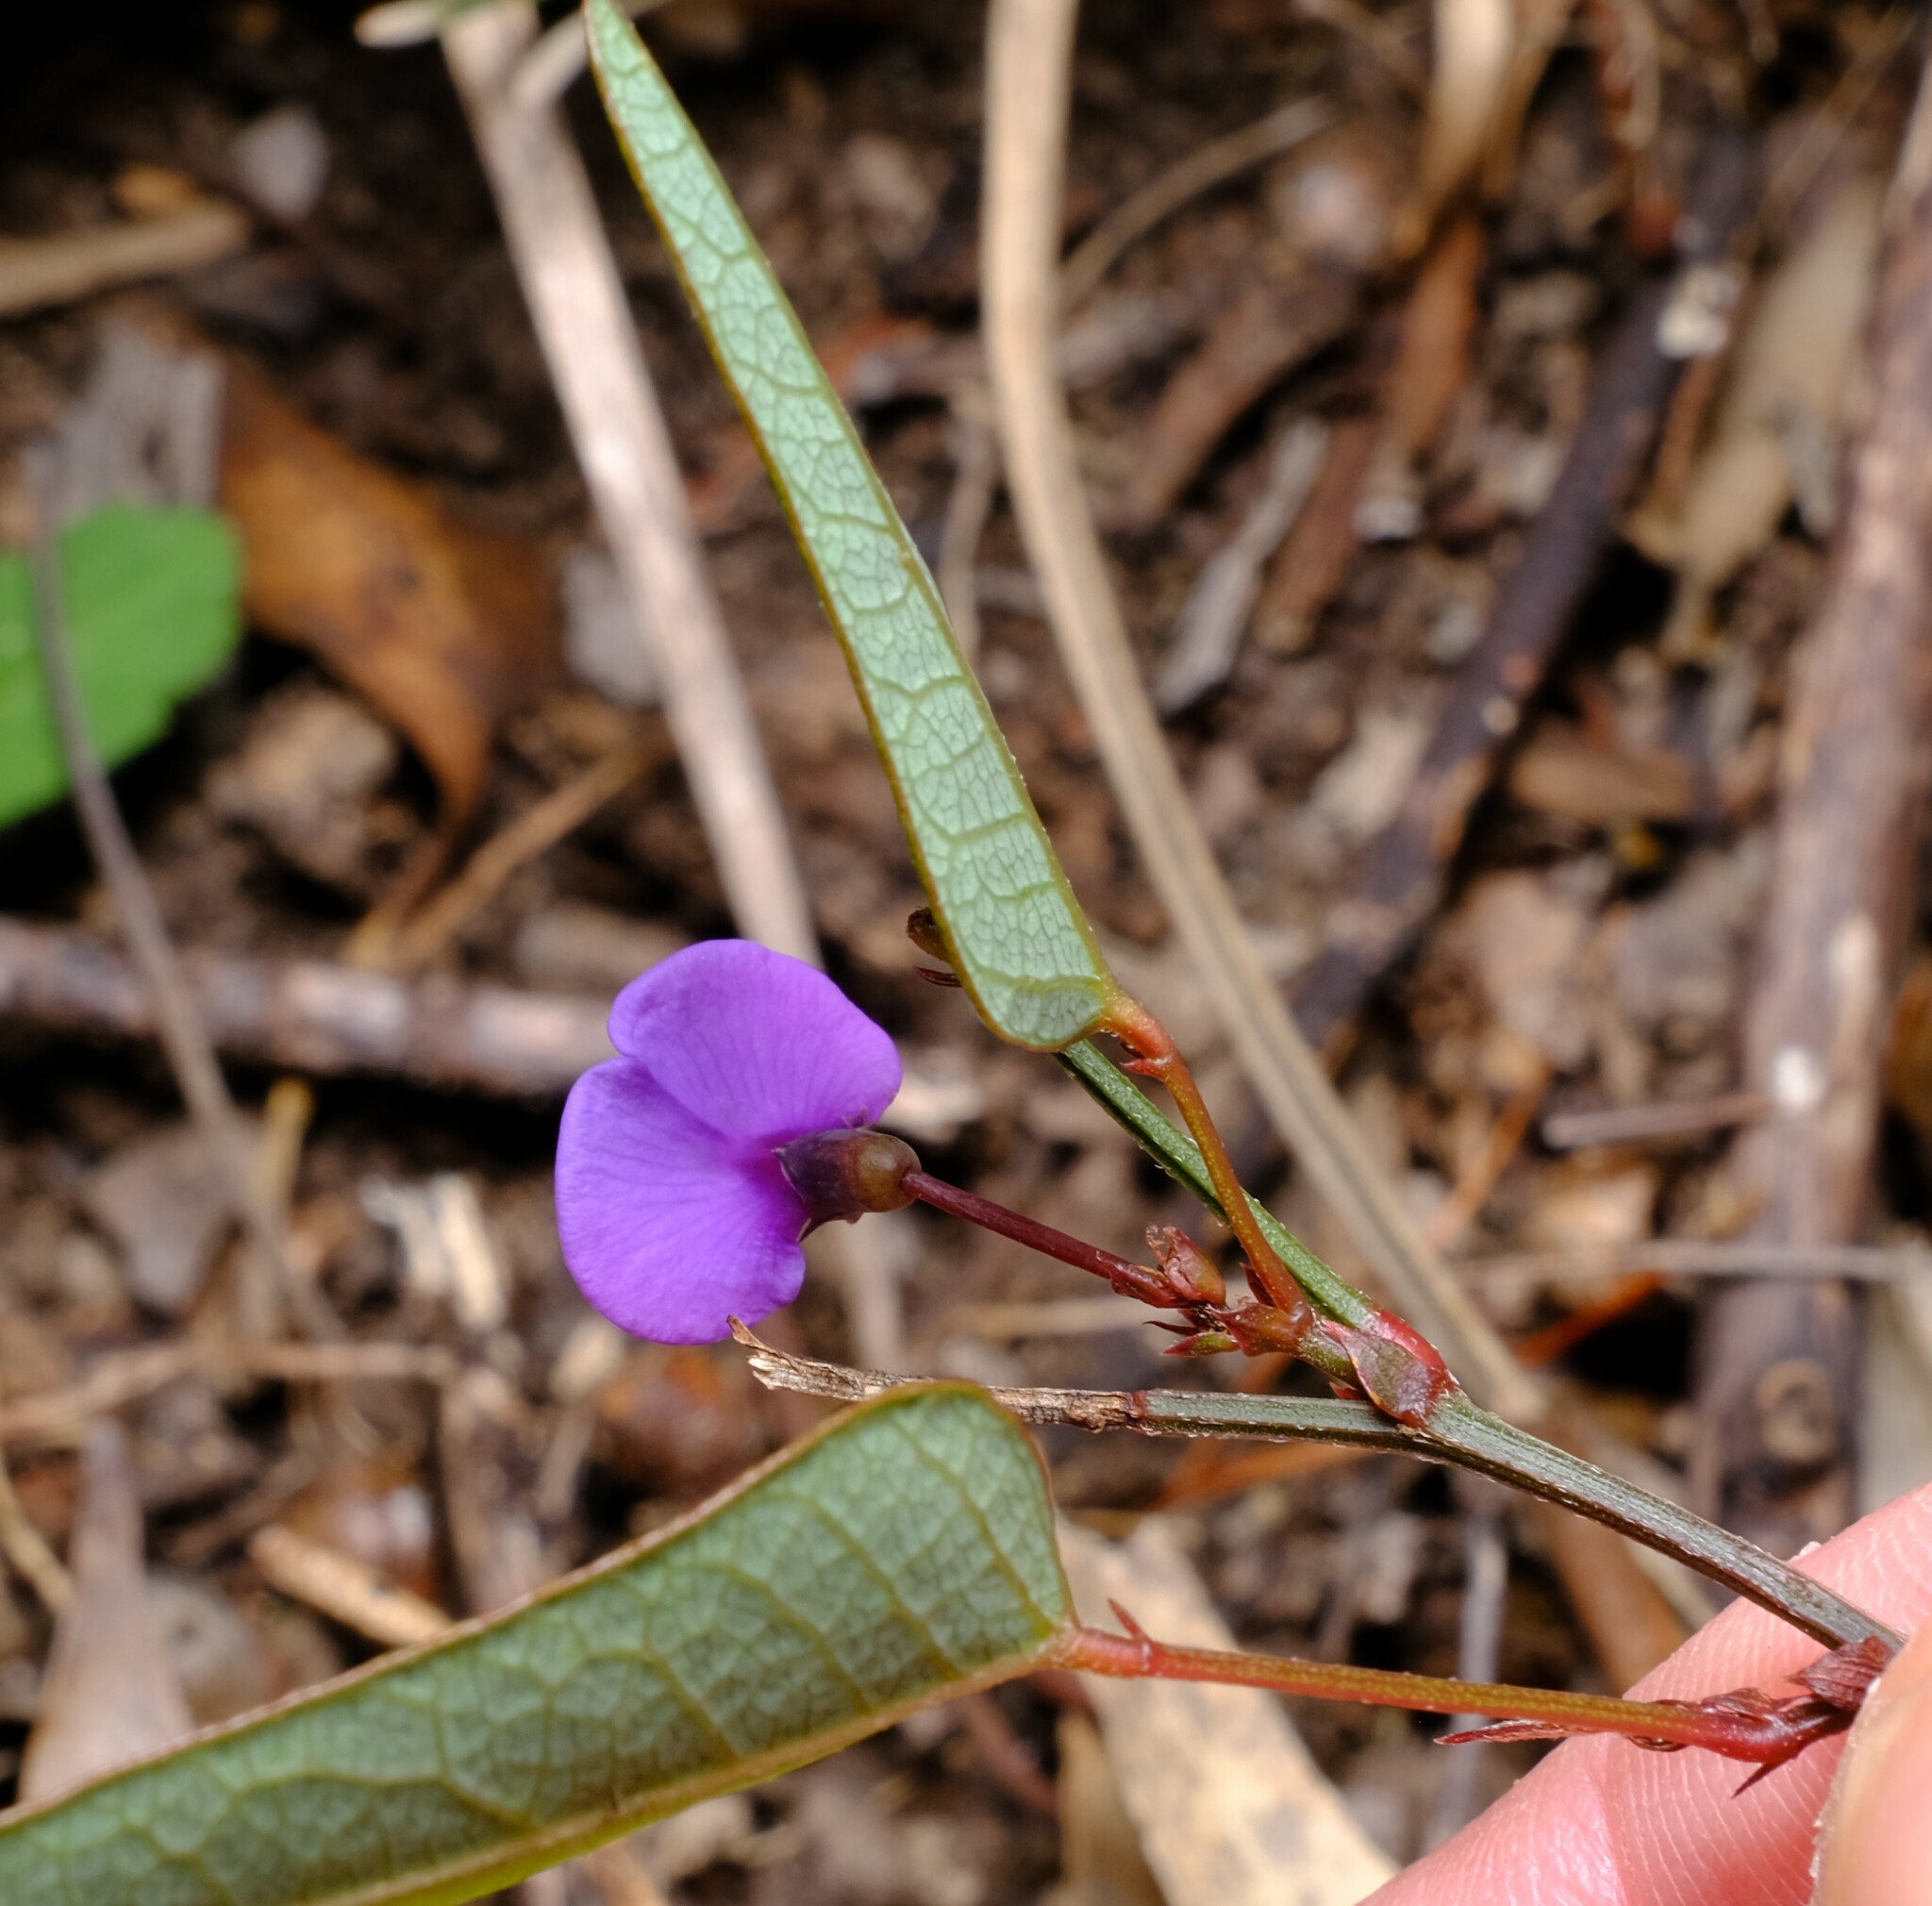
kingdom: Plantae
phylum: Tracheophyta
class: Magnoliopsida
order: Fabales
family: Fabaceae
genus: Hardenbergia
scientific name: Hardenbergia violacea
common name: Coral-pea
